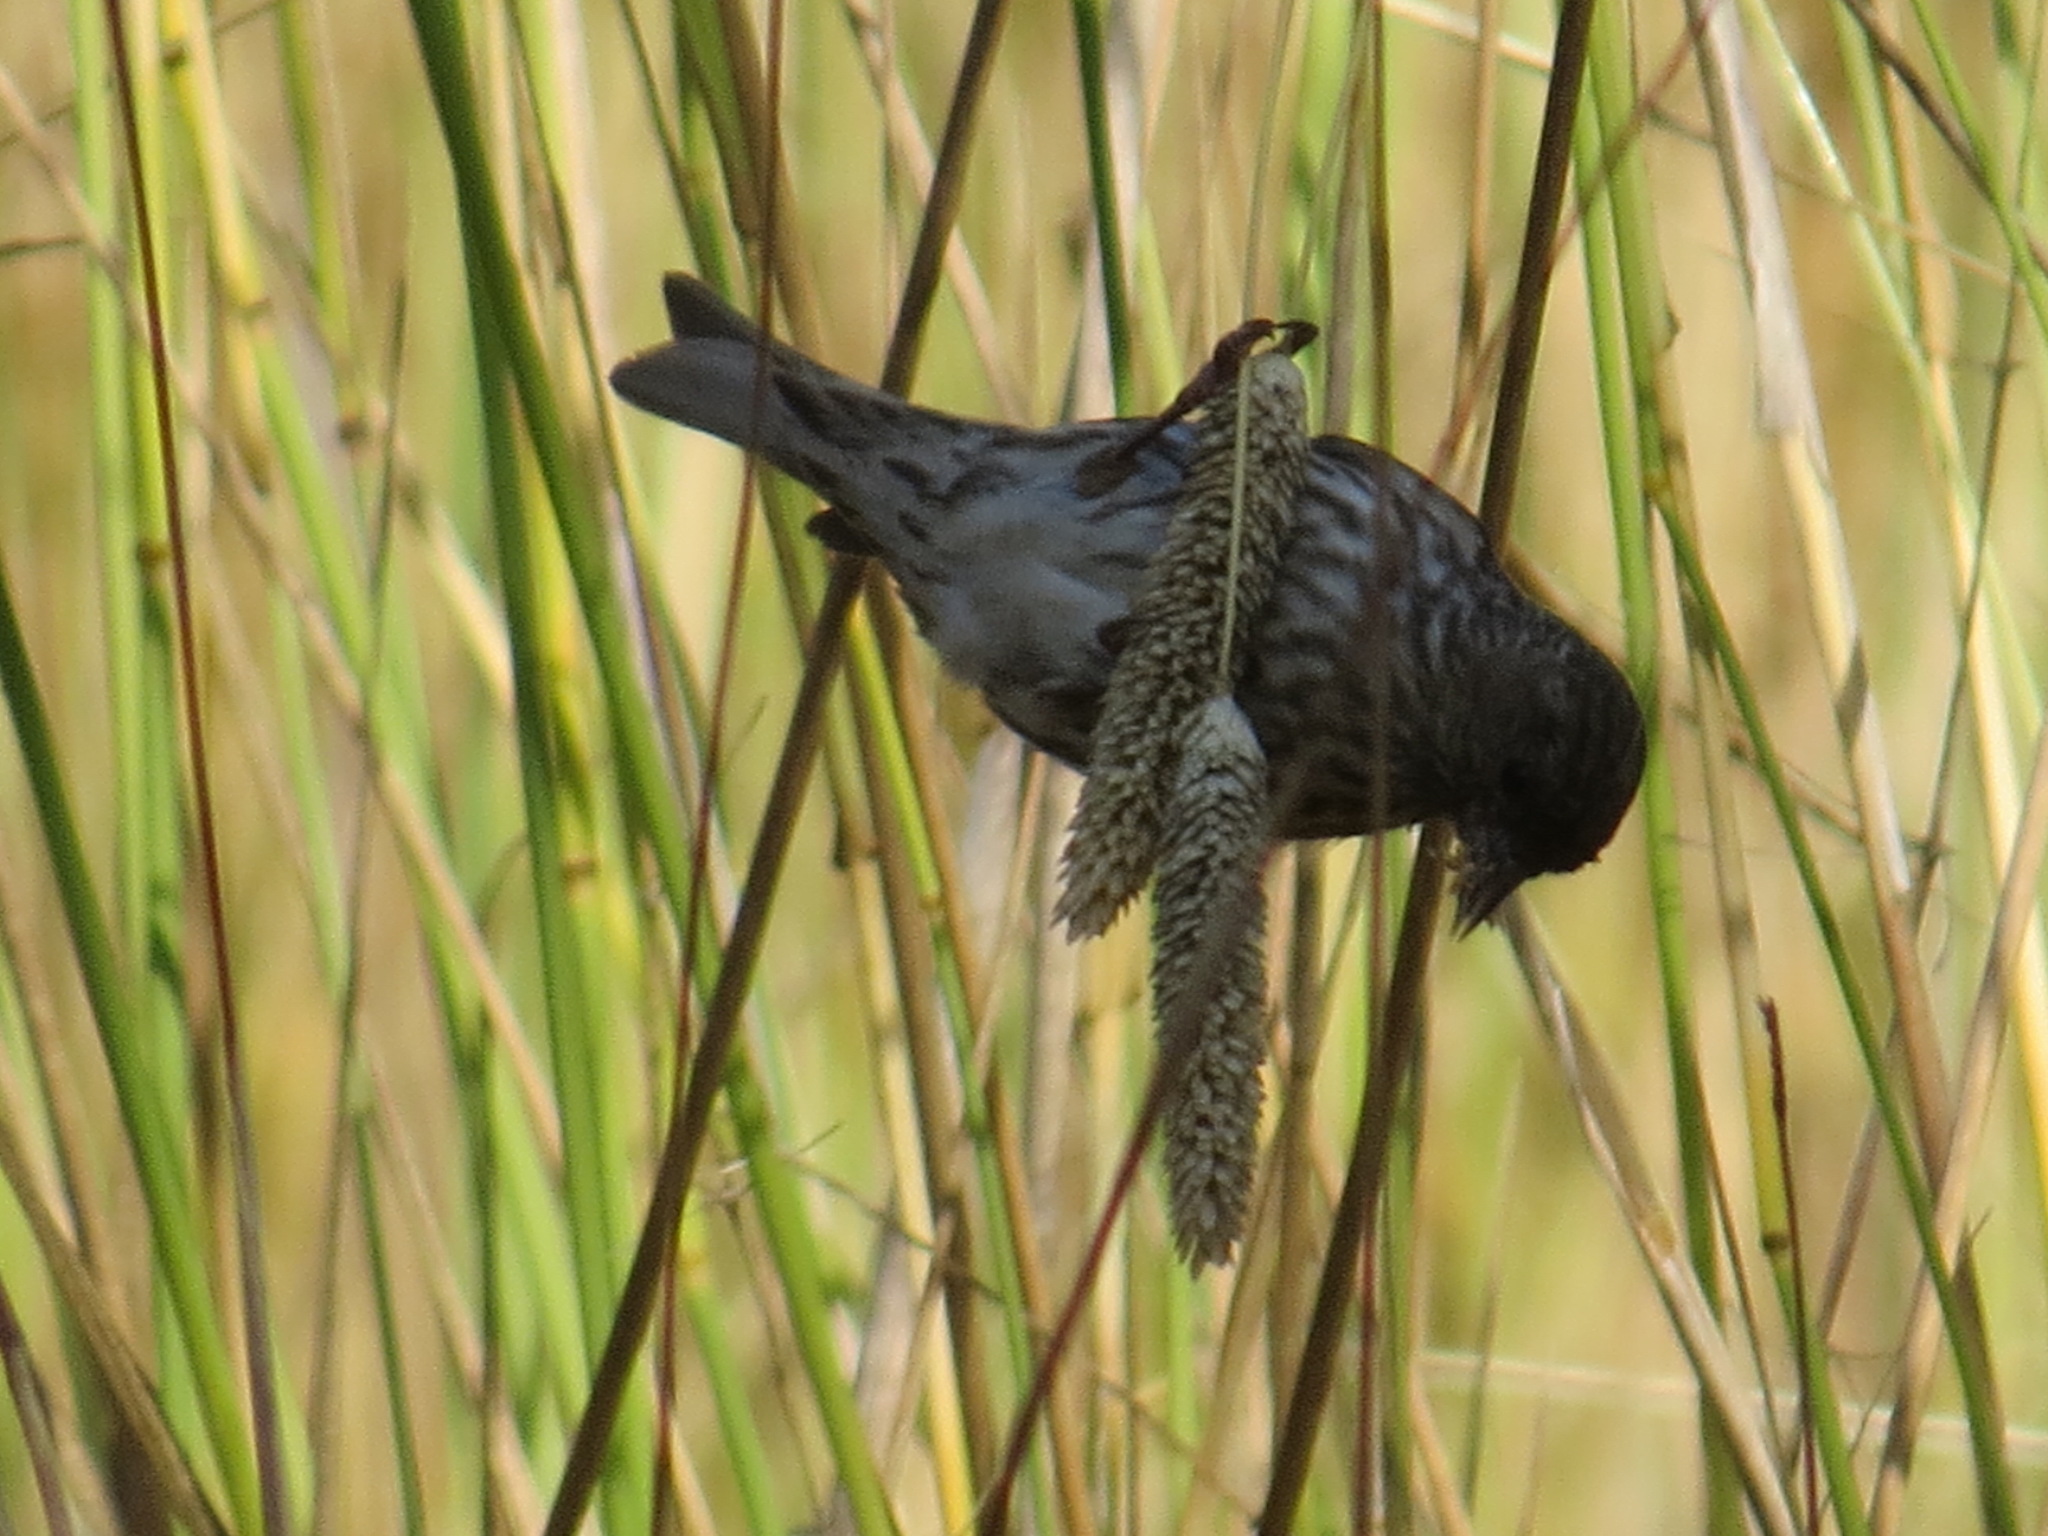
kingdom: Animalia
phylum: Chordata
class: Aves
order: Passeriformes
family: Fringillidae
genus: Spinus
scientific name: Spinus pinus
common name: Pine siskin
